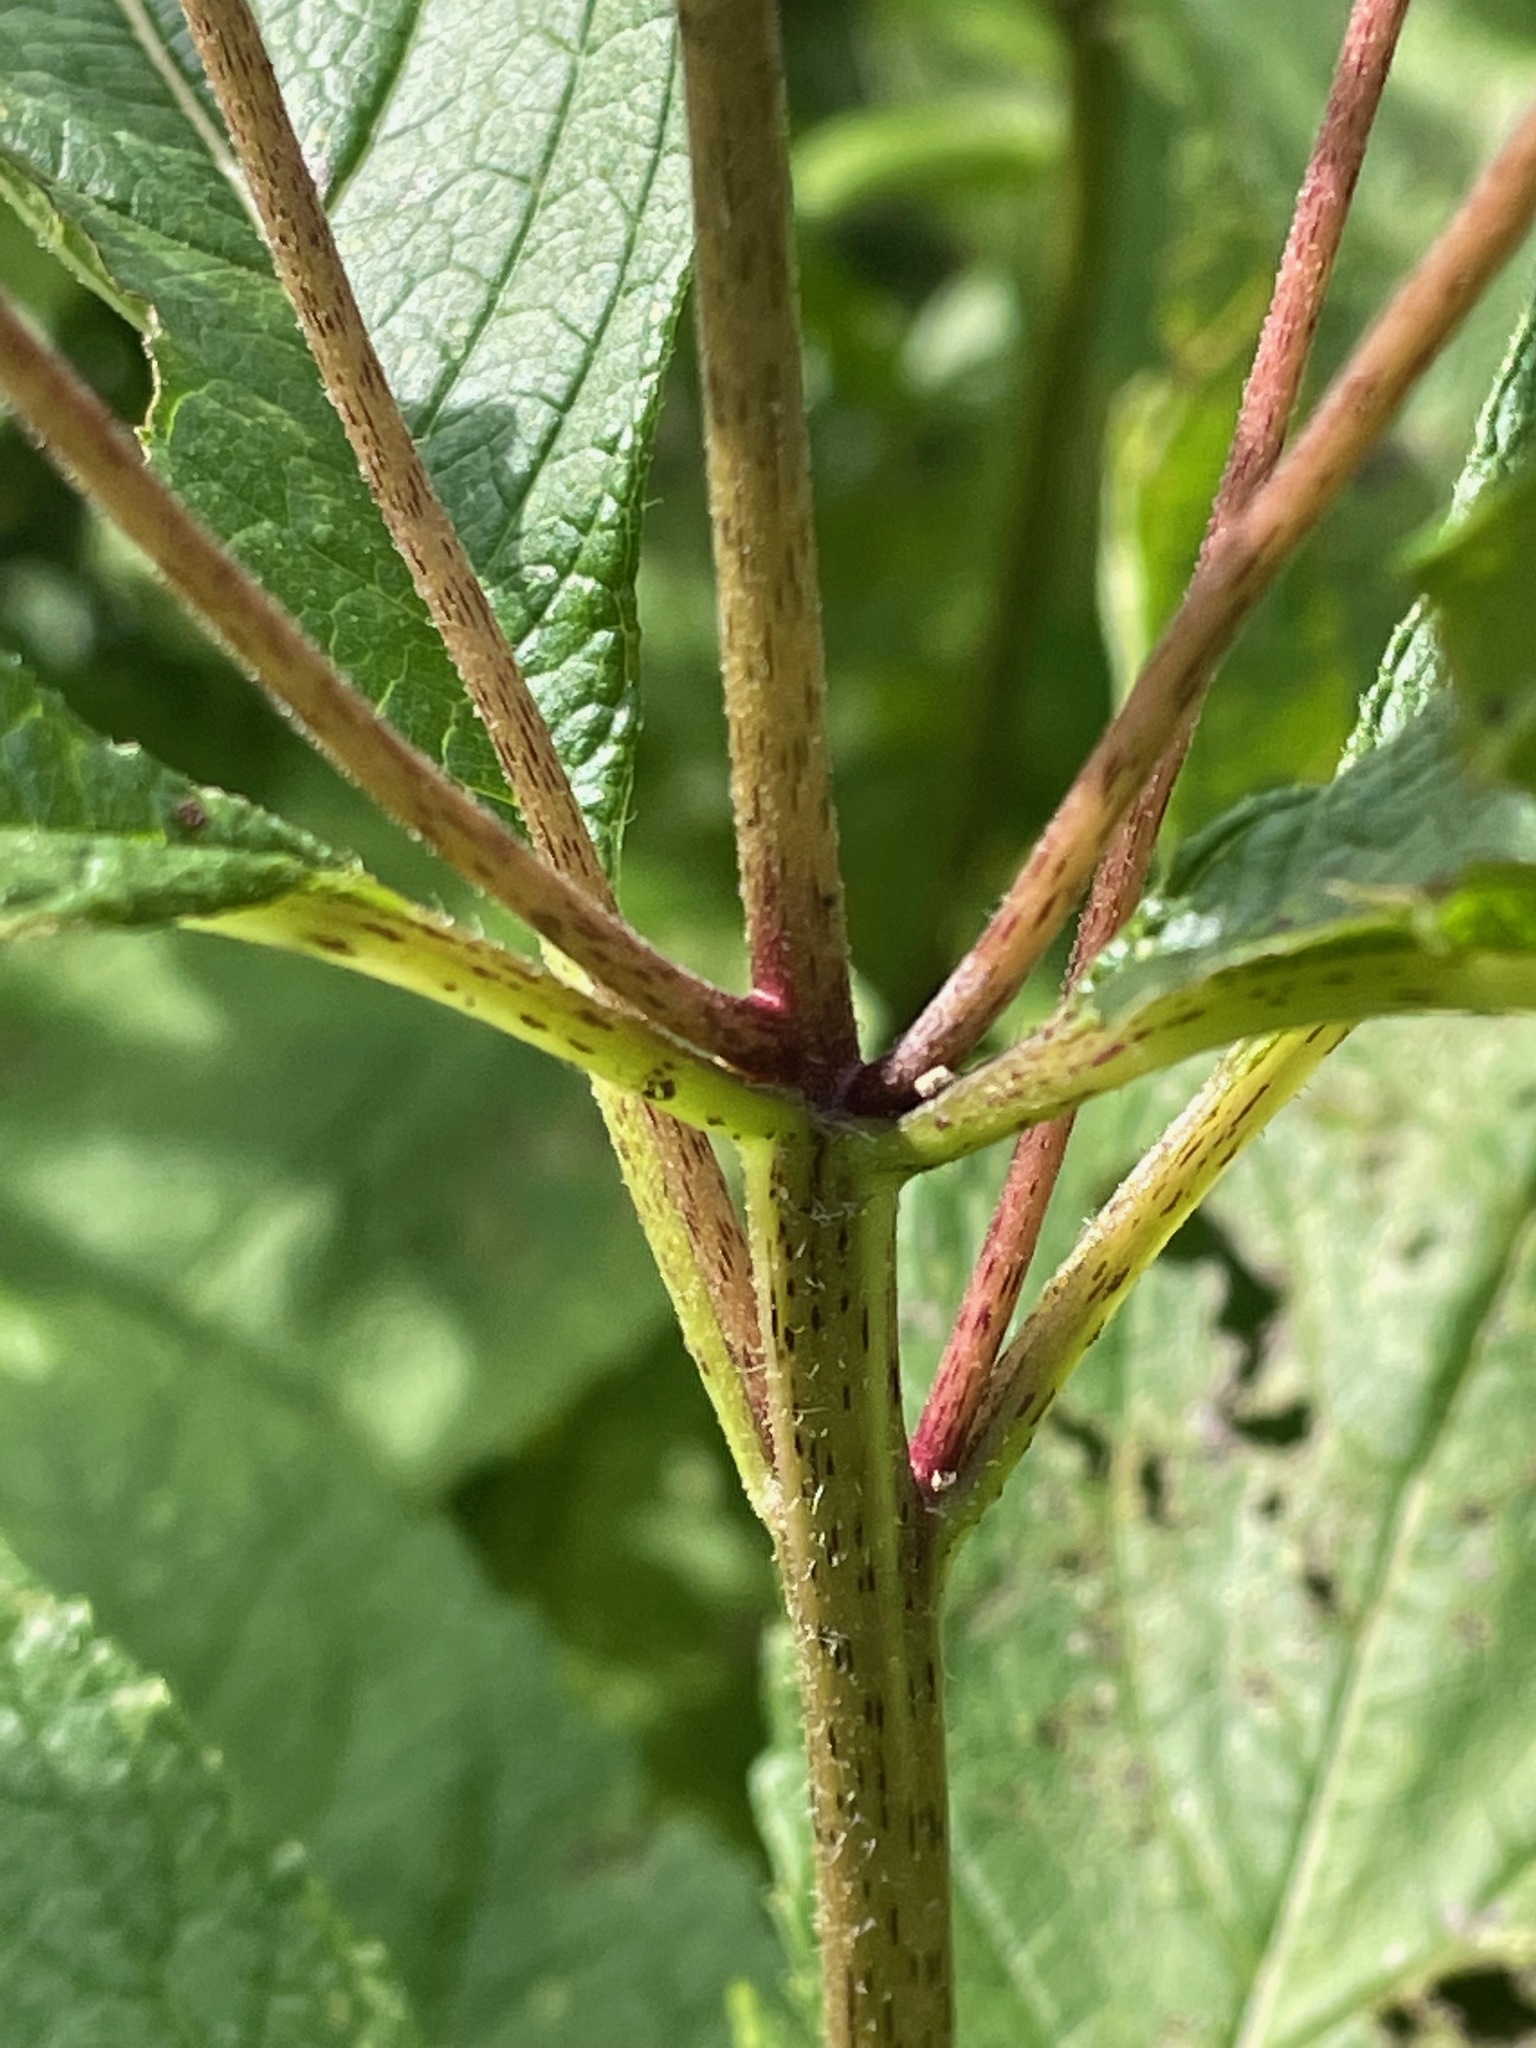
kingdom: Plantae
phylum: Tracheophyta
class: Magnoliopsida
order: Asterales
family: Asteraceae
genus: Eutrochium
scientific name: Eutrochium maculatum
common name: Spotted joe pye weed
